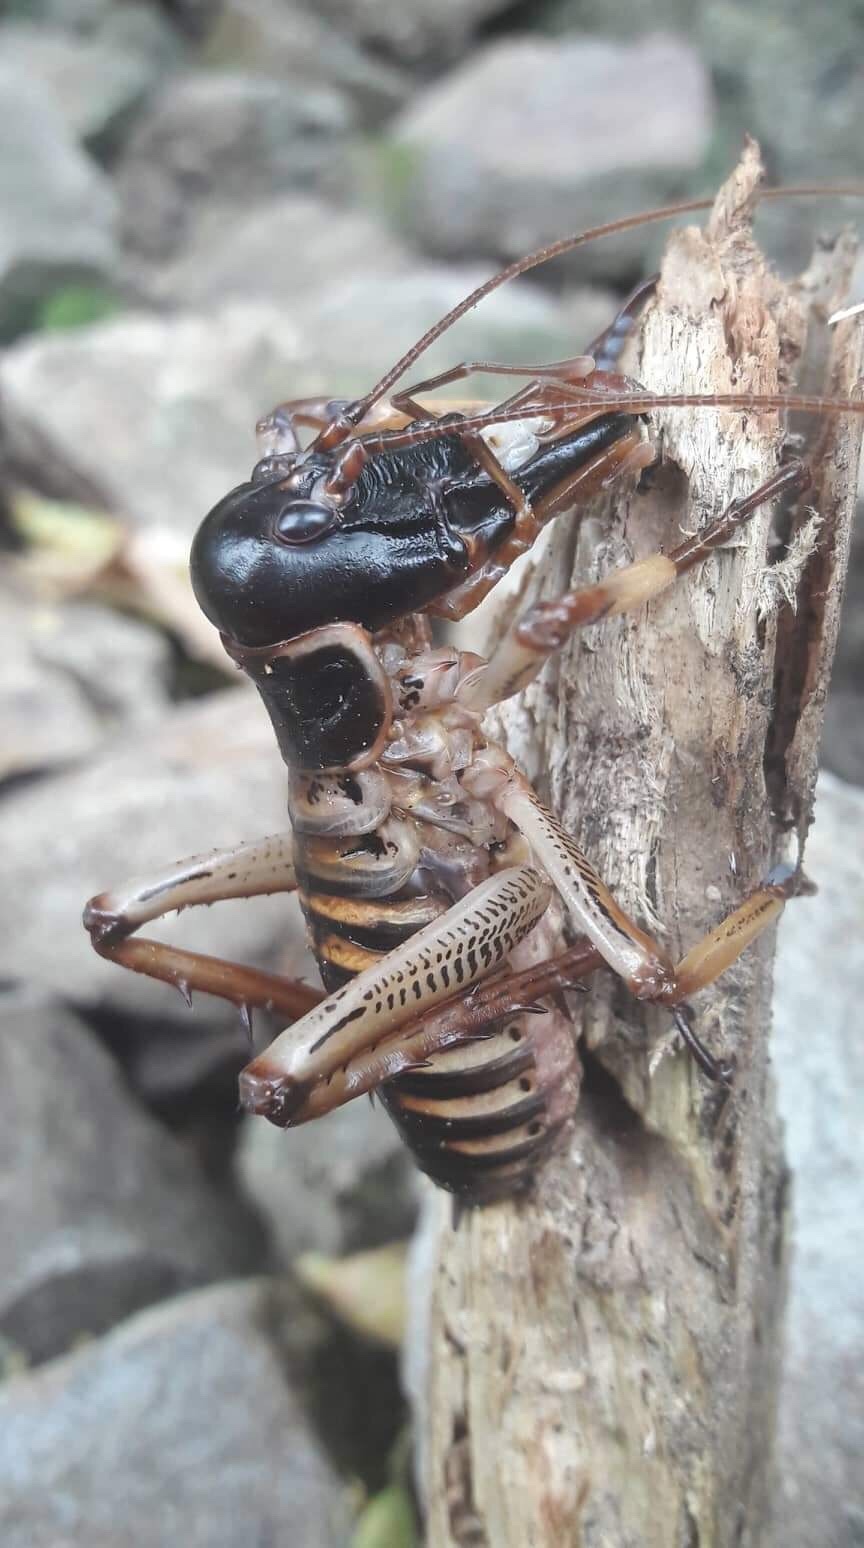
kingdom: Animalia
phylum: Arthropoda
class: Insecta
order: Orthoptera
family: Anostostomatidae
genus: Hemideina
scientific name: Hemideina crassidens
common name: Wellington tree weta
